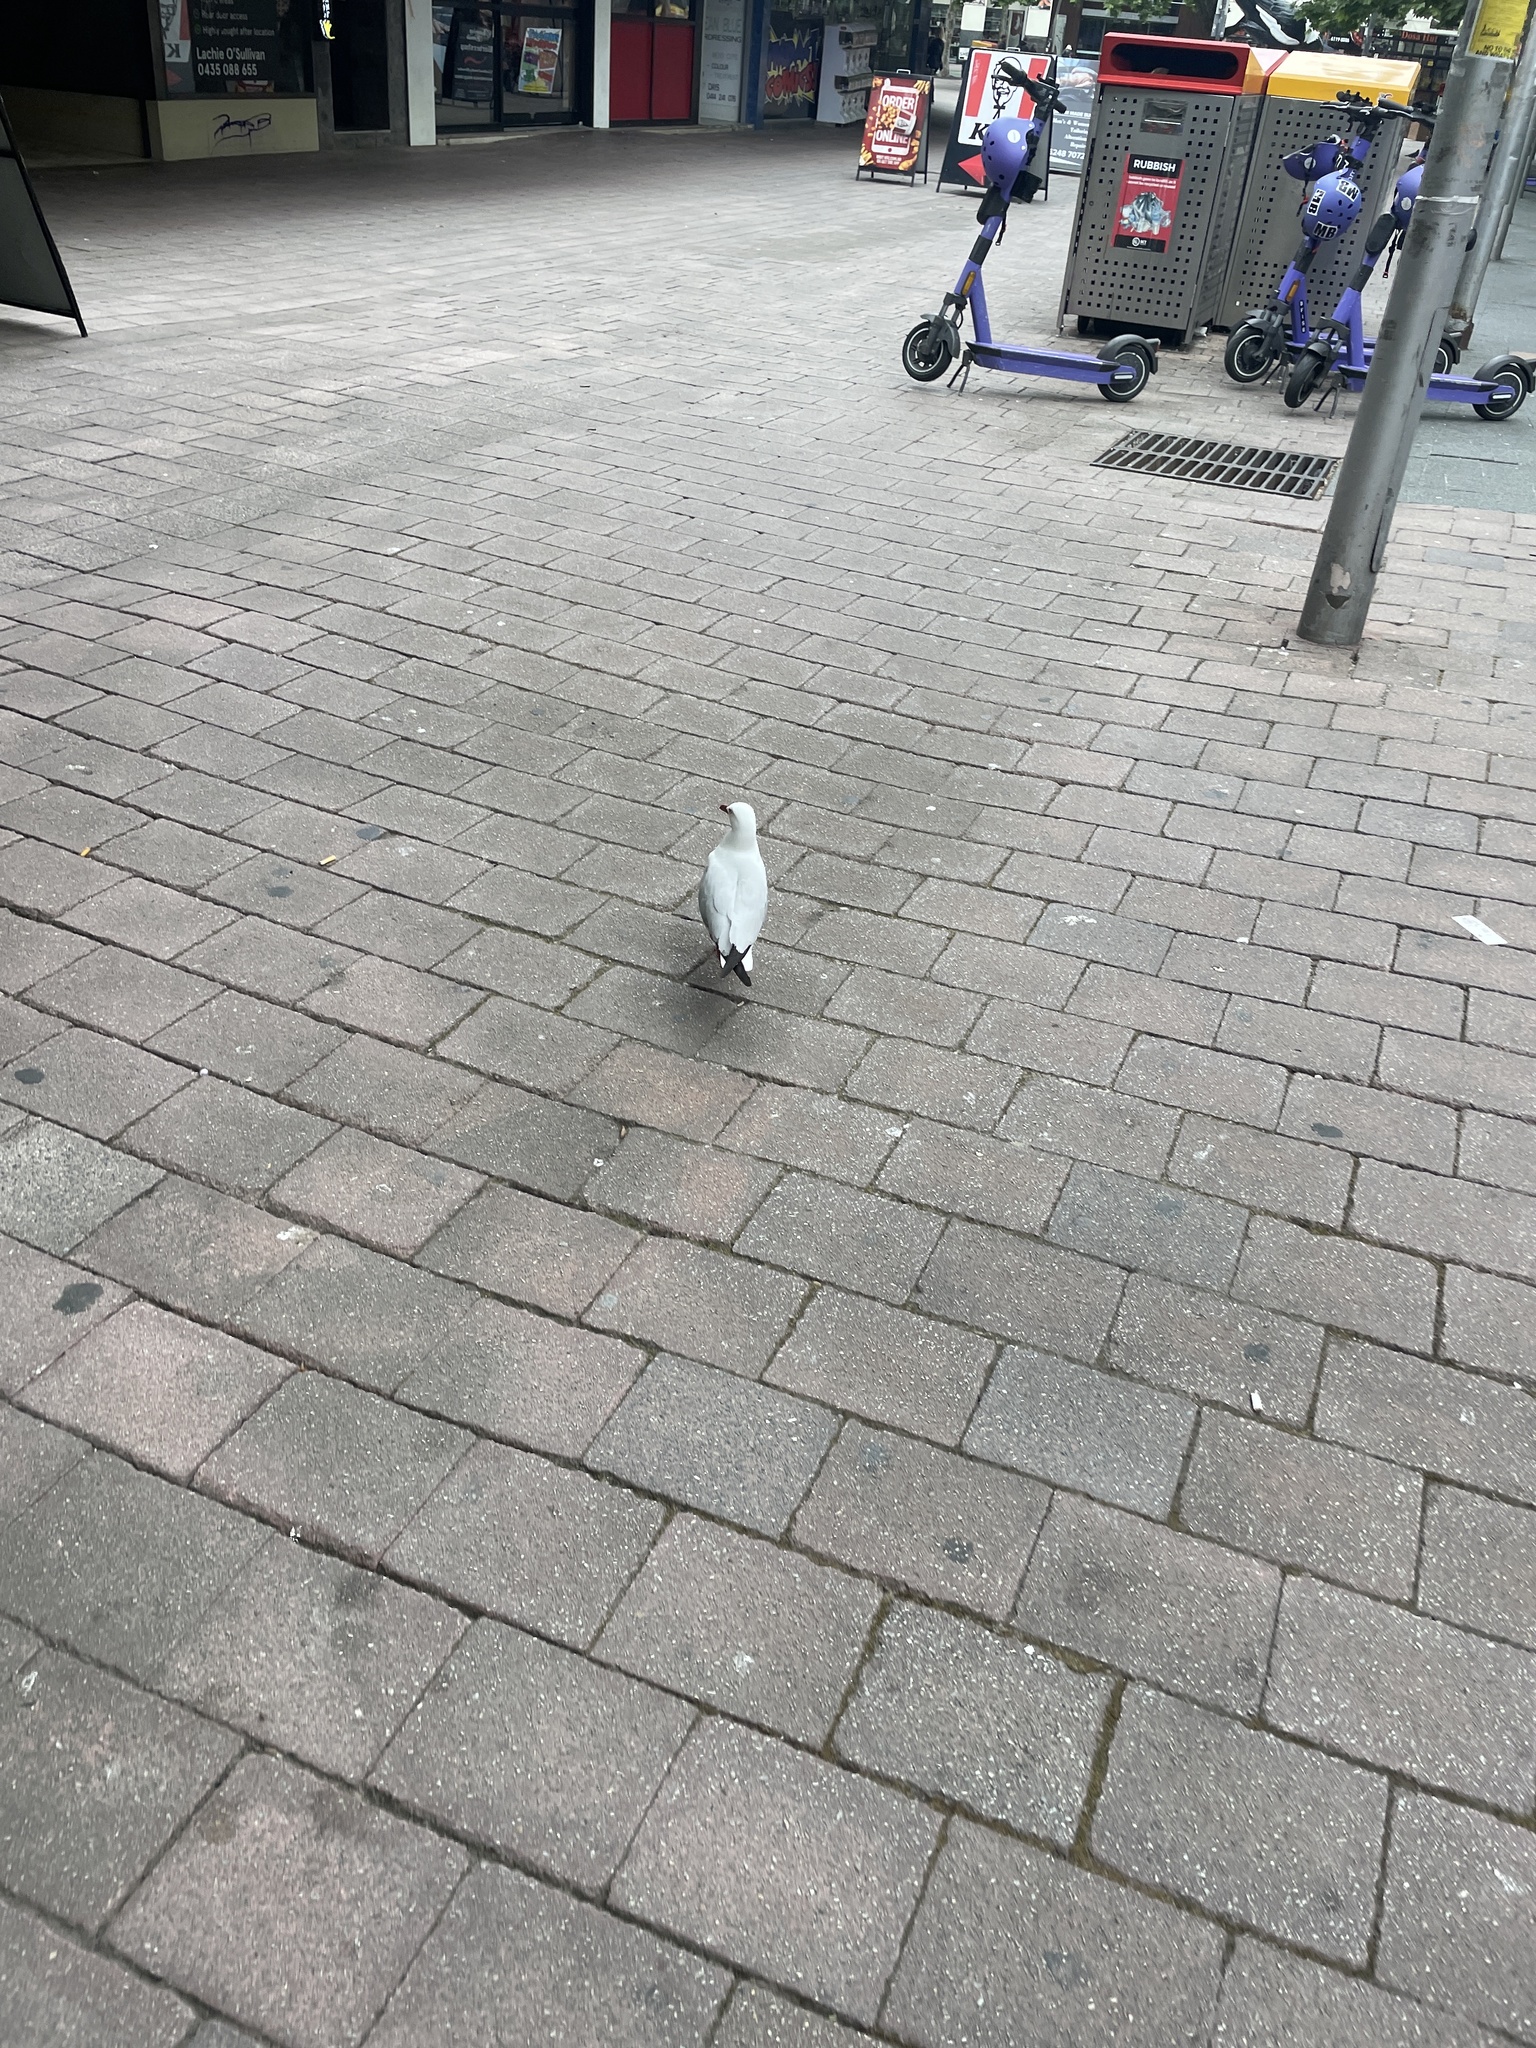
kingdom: Animalia
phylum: Chordata
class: Aves
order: Charadriiformes
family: Laridae
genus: Chroicocephalus
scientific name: Chroicocephalus novaehollandiae
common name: Silver gull
